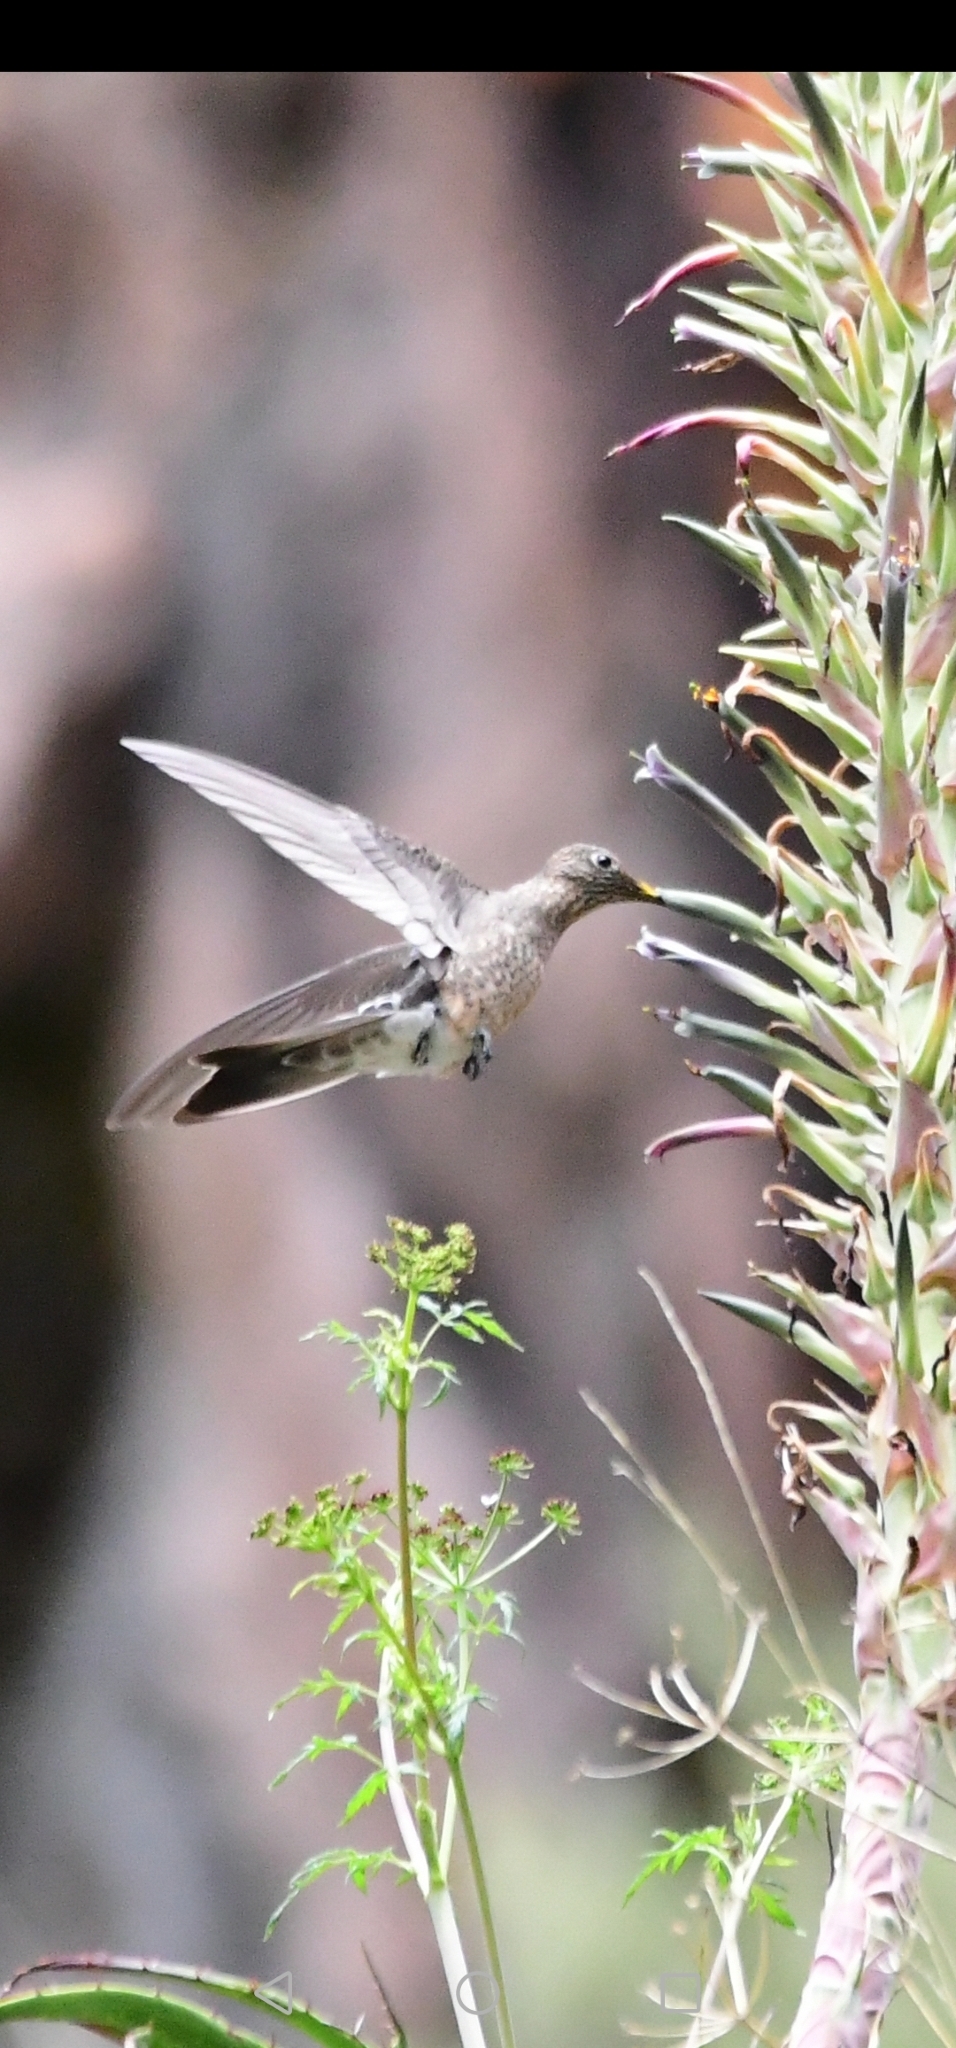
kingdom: Animalia
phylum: Chordata
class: Aves
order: Apodiformes
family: Trochilidae
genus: Patagona
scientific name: Patagona gigas
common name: Giant hummingbird
